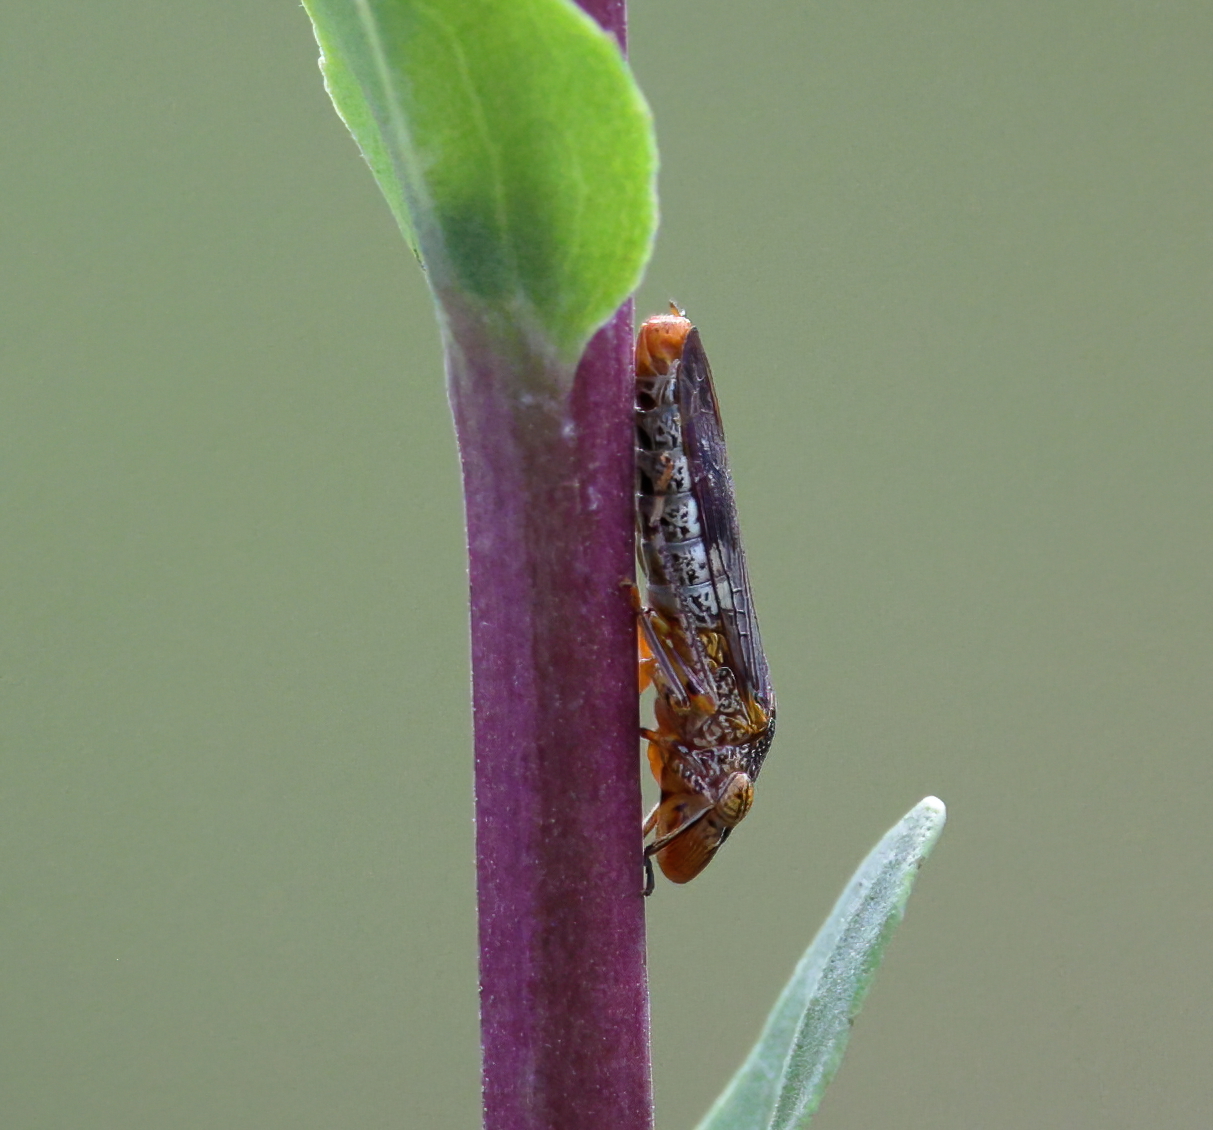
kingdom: Animalia
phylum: Arthropoda
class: Insecta
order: Hemiptera
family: Cicadellidae
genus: Homalodisca
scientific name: Homalodisca vitripennis
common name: Glassy-winged sharpshooter
